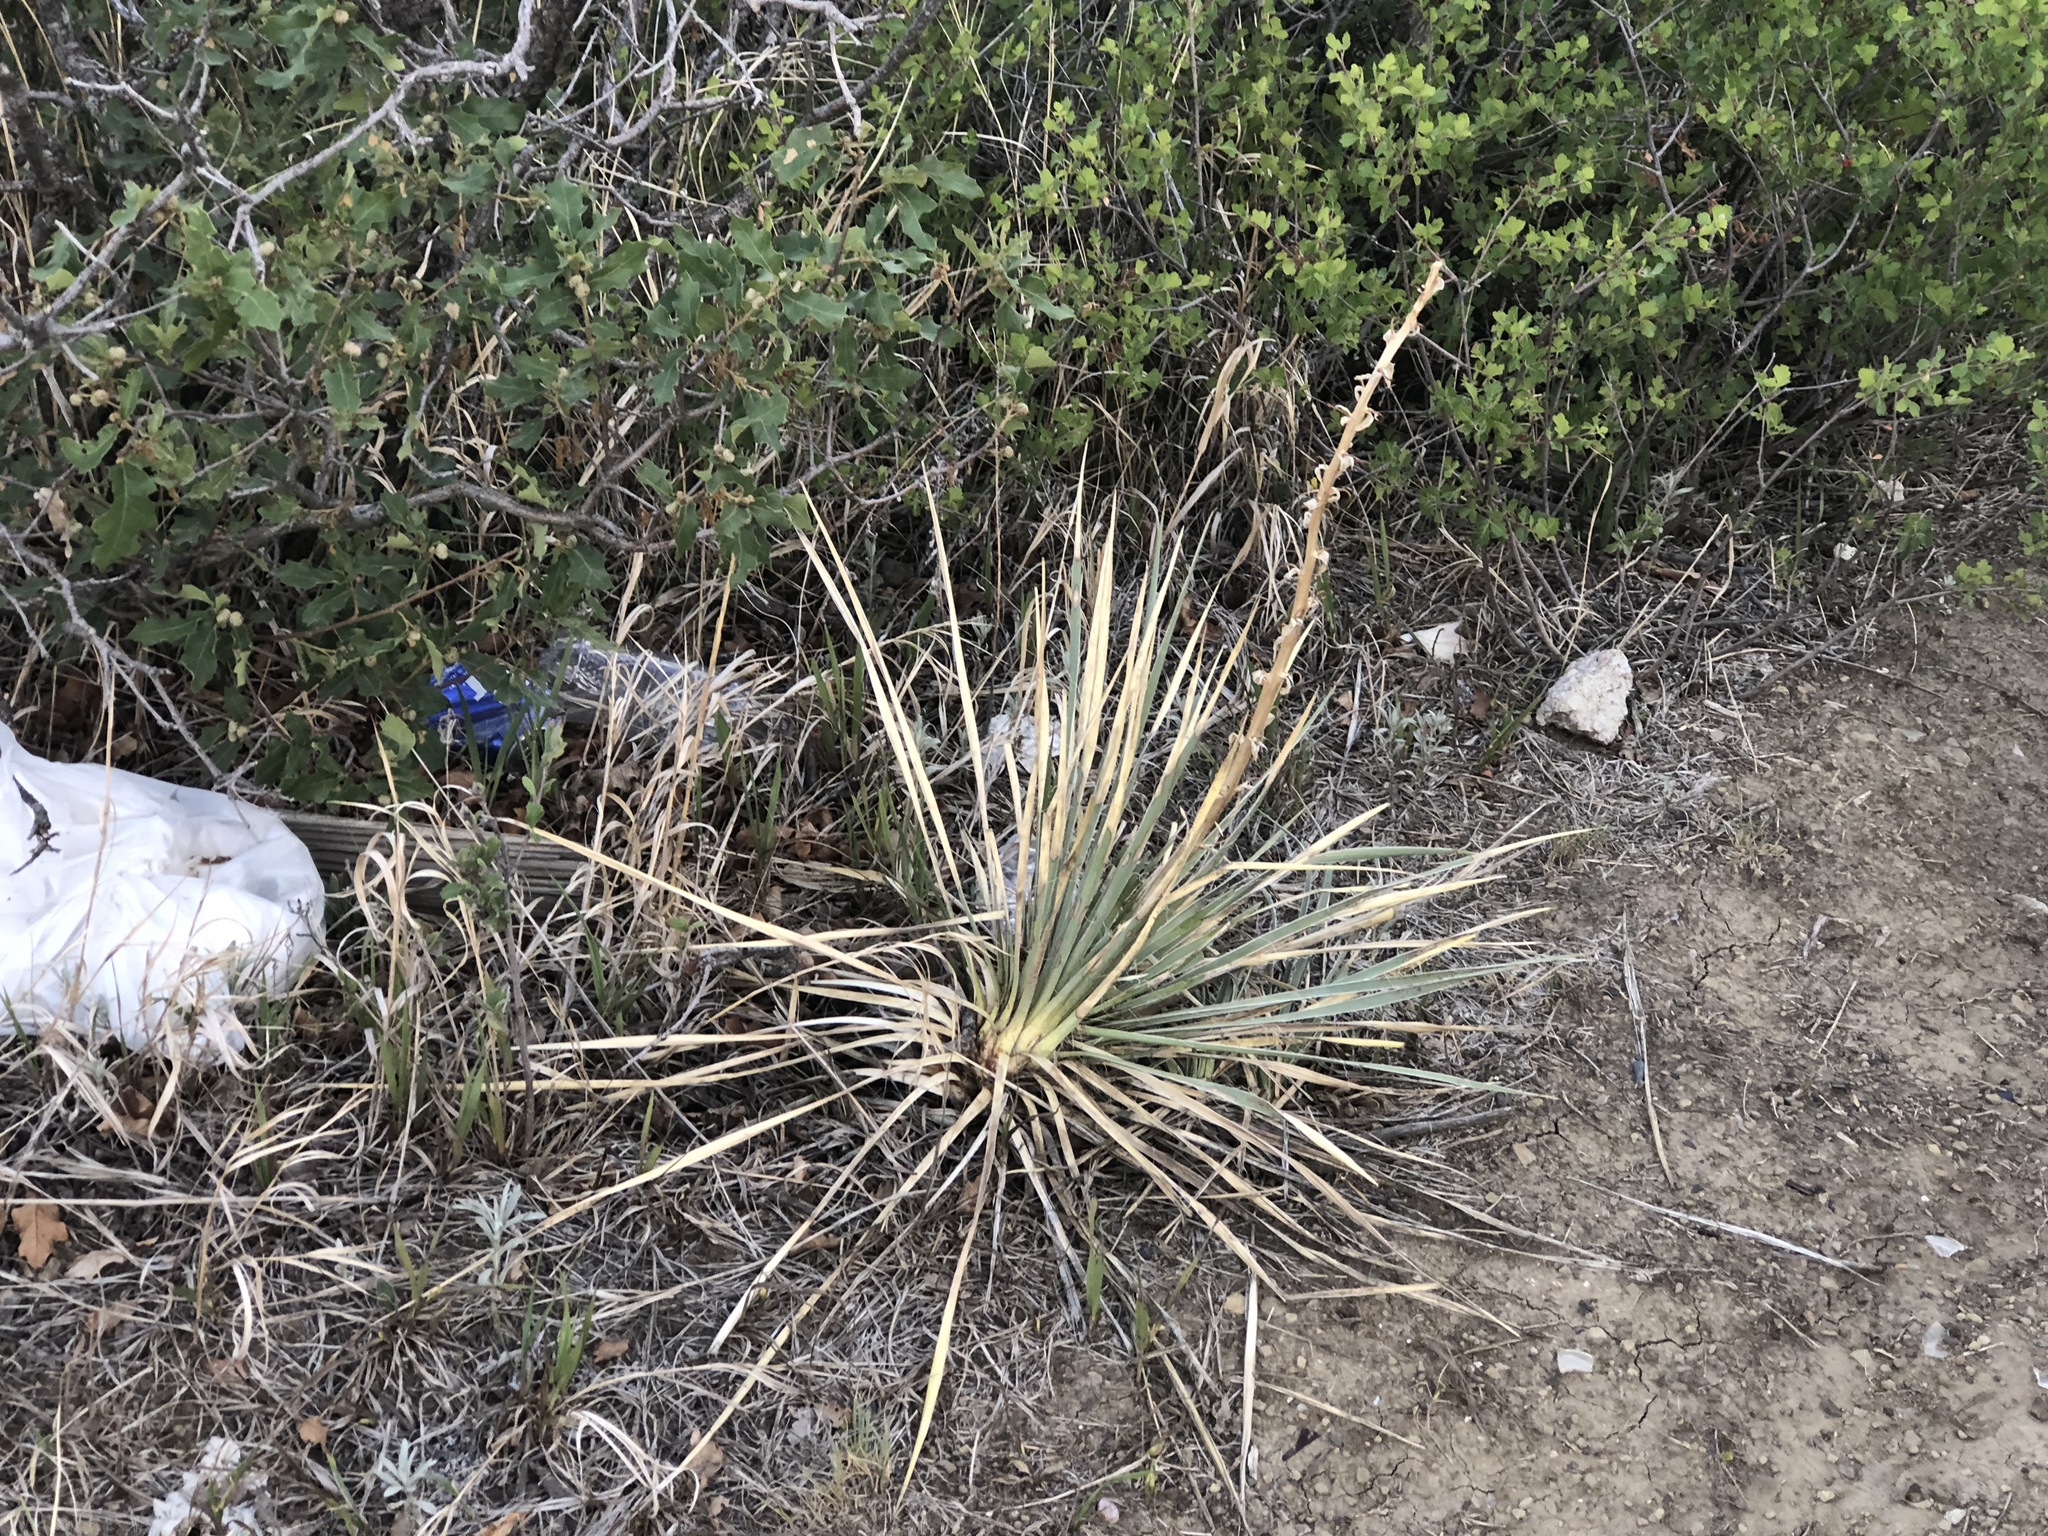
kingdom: Plantae
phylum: Tracheophyta
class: Liliopsida
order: Asparagales
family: Asparagaceae
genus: Yucca
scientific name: Yucca glauca
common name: Great plains yucca
